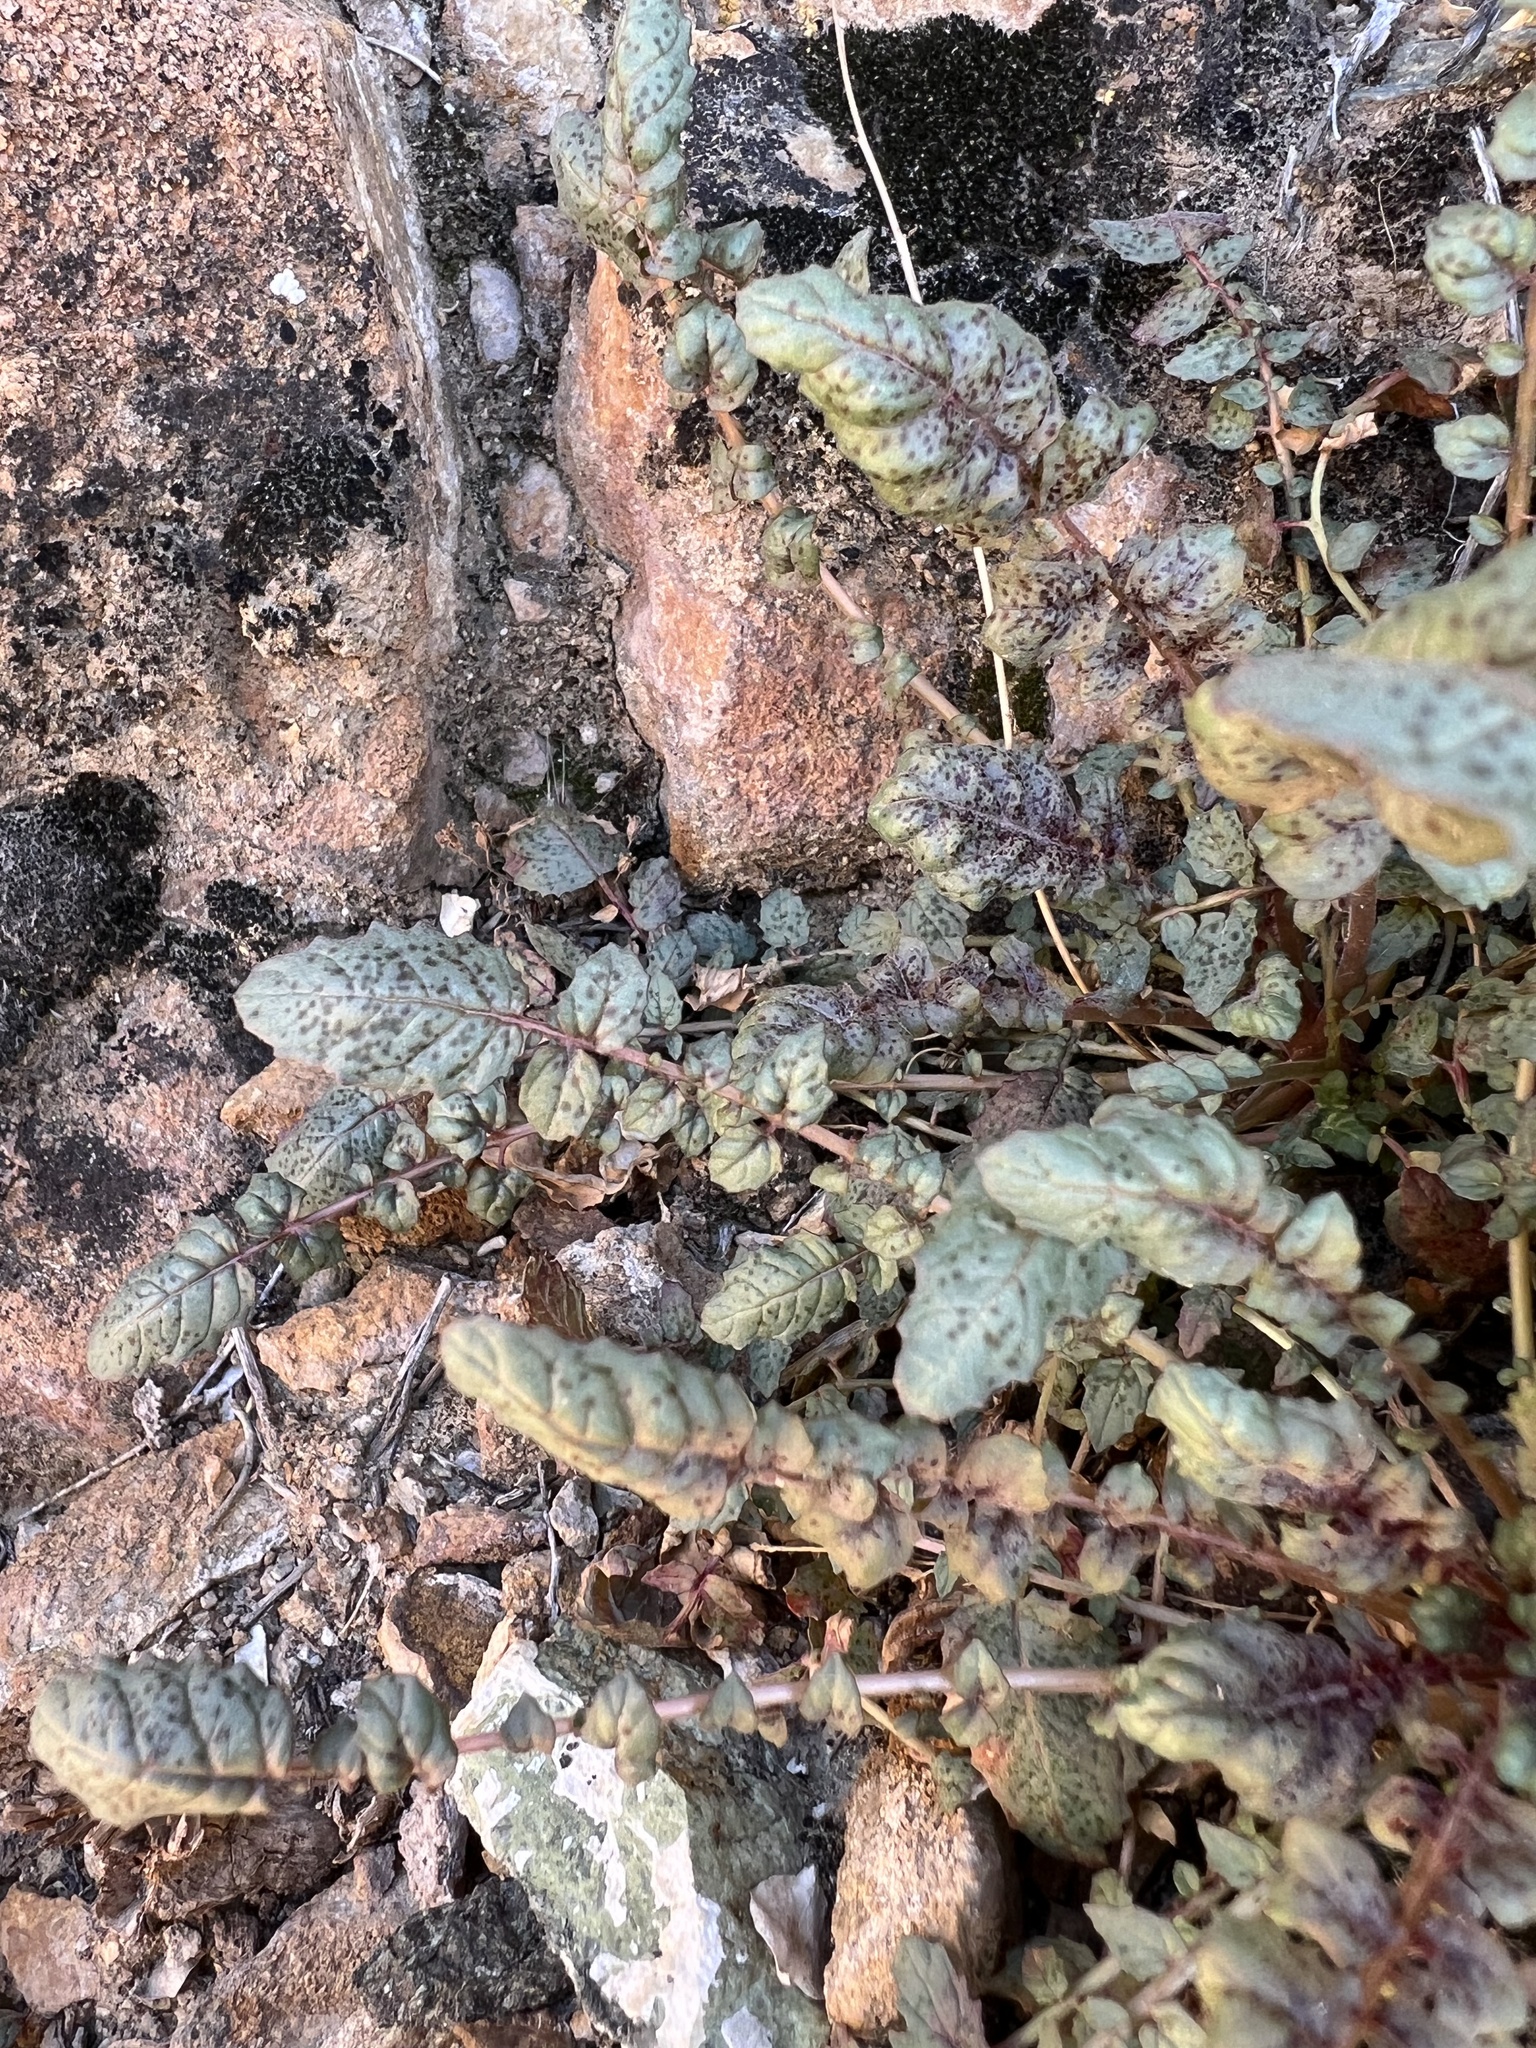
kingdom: Plantae
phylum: Tracheophyta
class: Magnoliopsida
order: Myrtales
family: Onagraceae
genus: Chylismia
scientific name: Chylismia walkeri
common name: Walker's suncup
